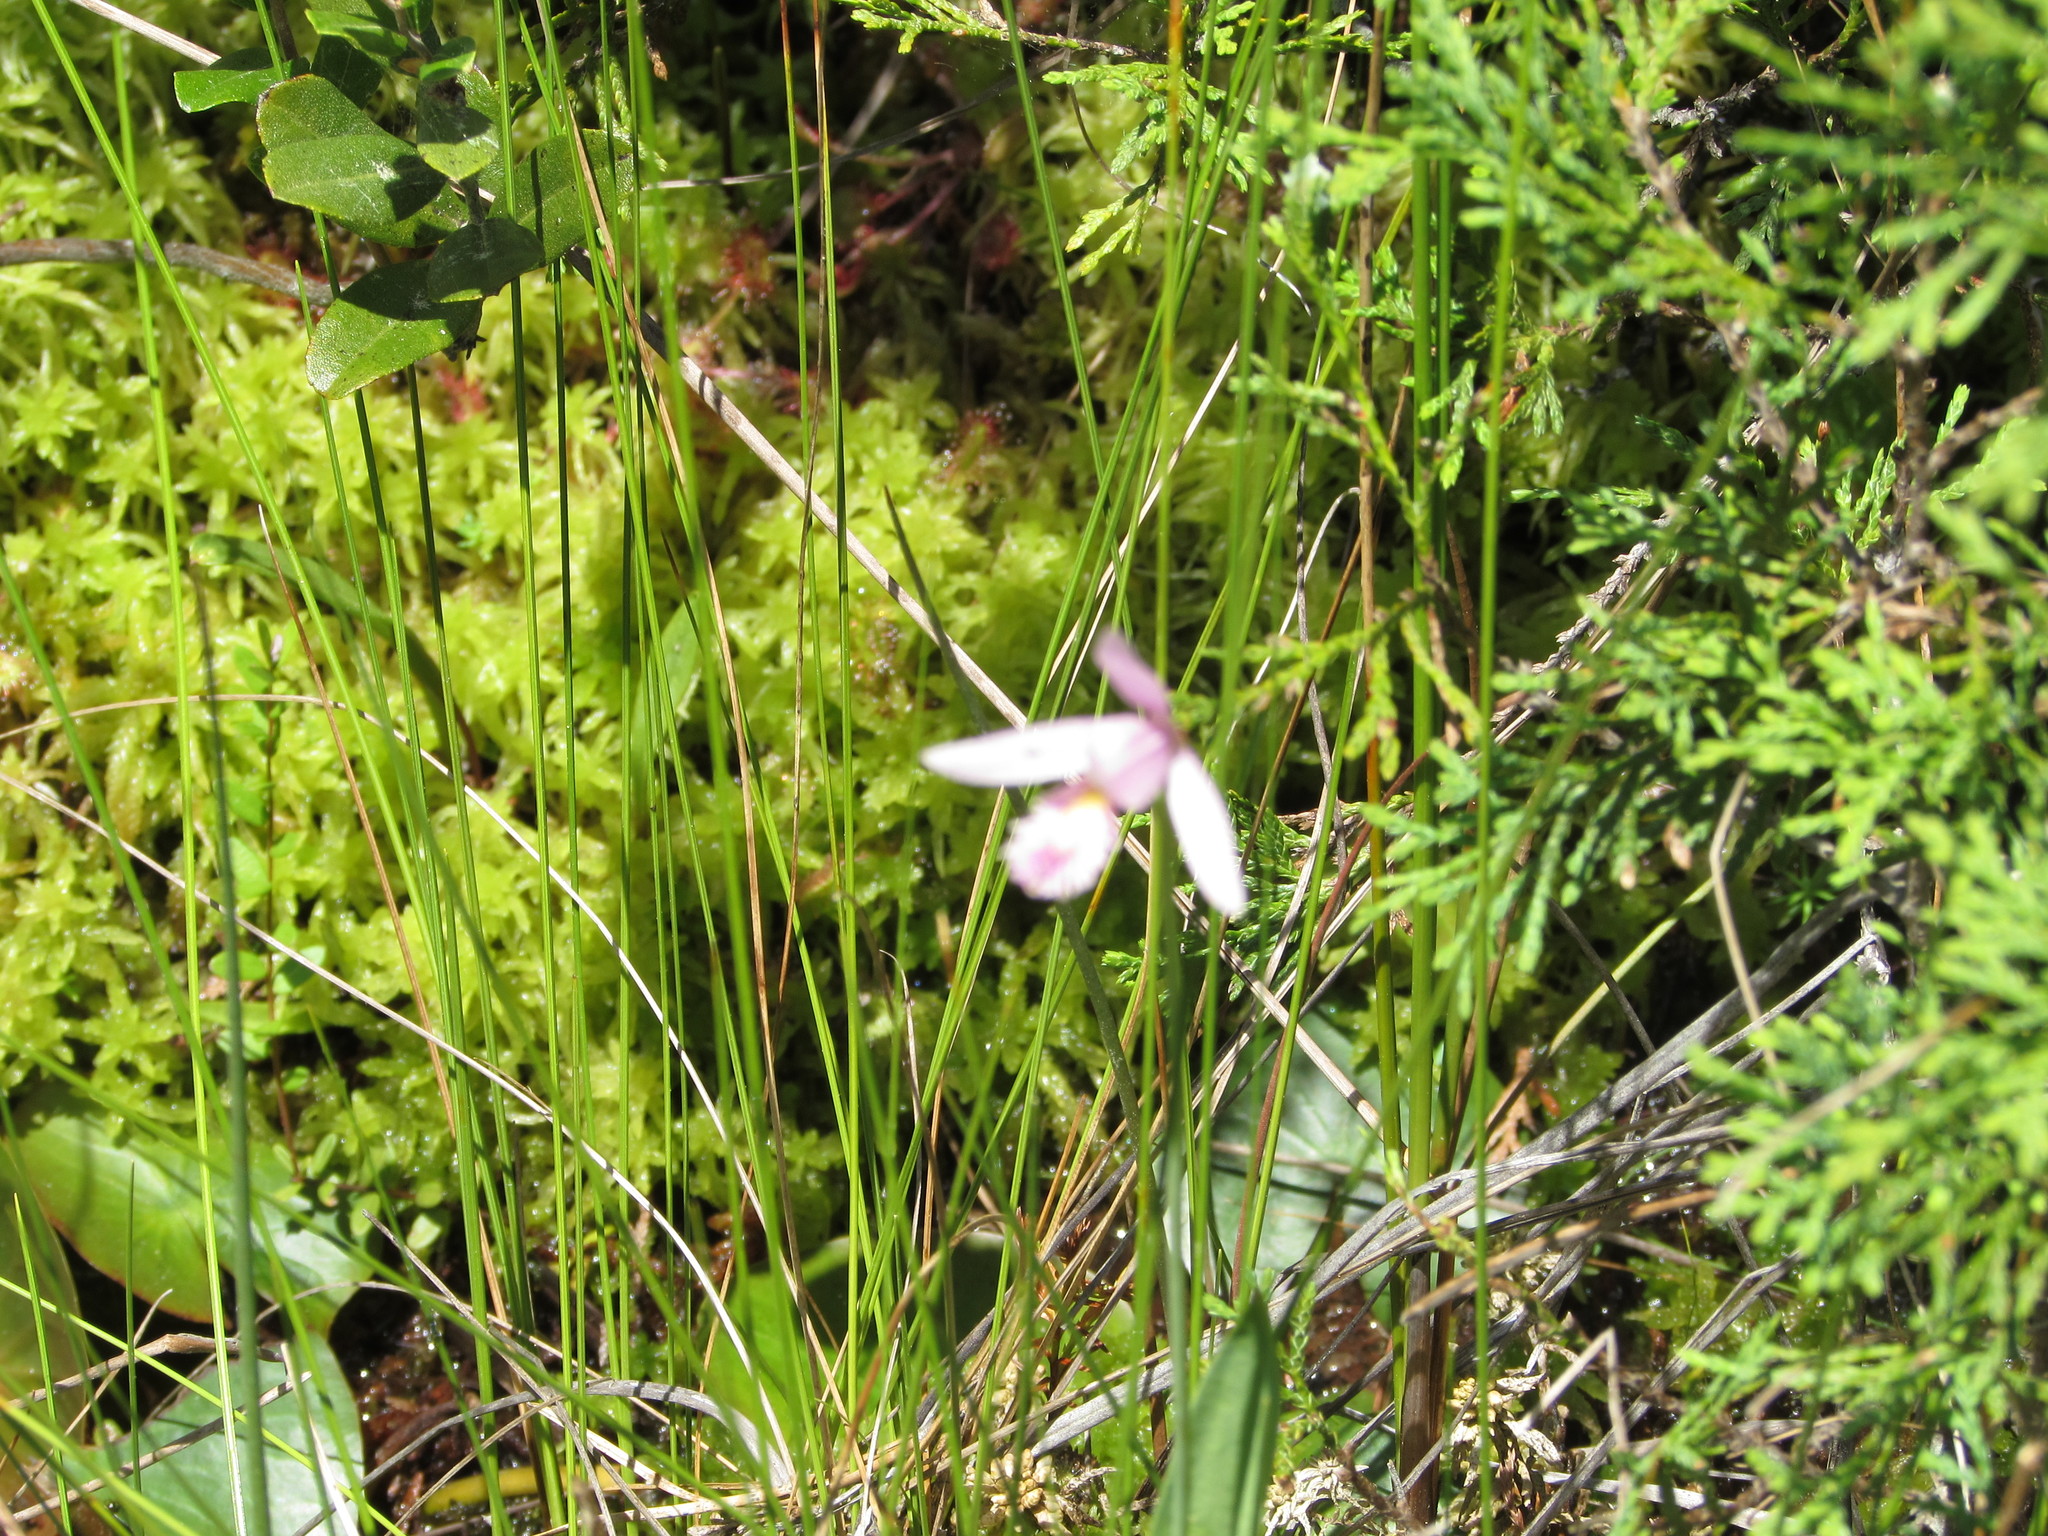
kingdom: Plantae
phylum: Tracheophyta
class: Liliopsida
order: Asparagales
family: Orchidaceae
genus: Pogonia
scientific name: Pogonia ophioglossoides
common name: Rose pogonia
